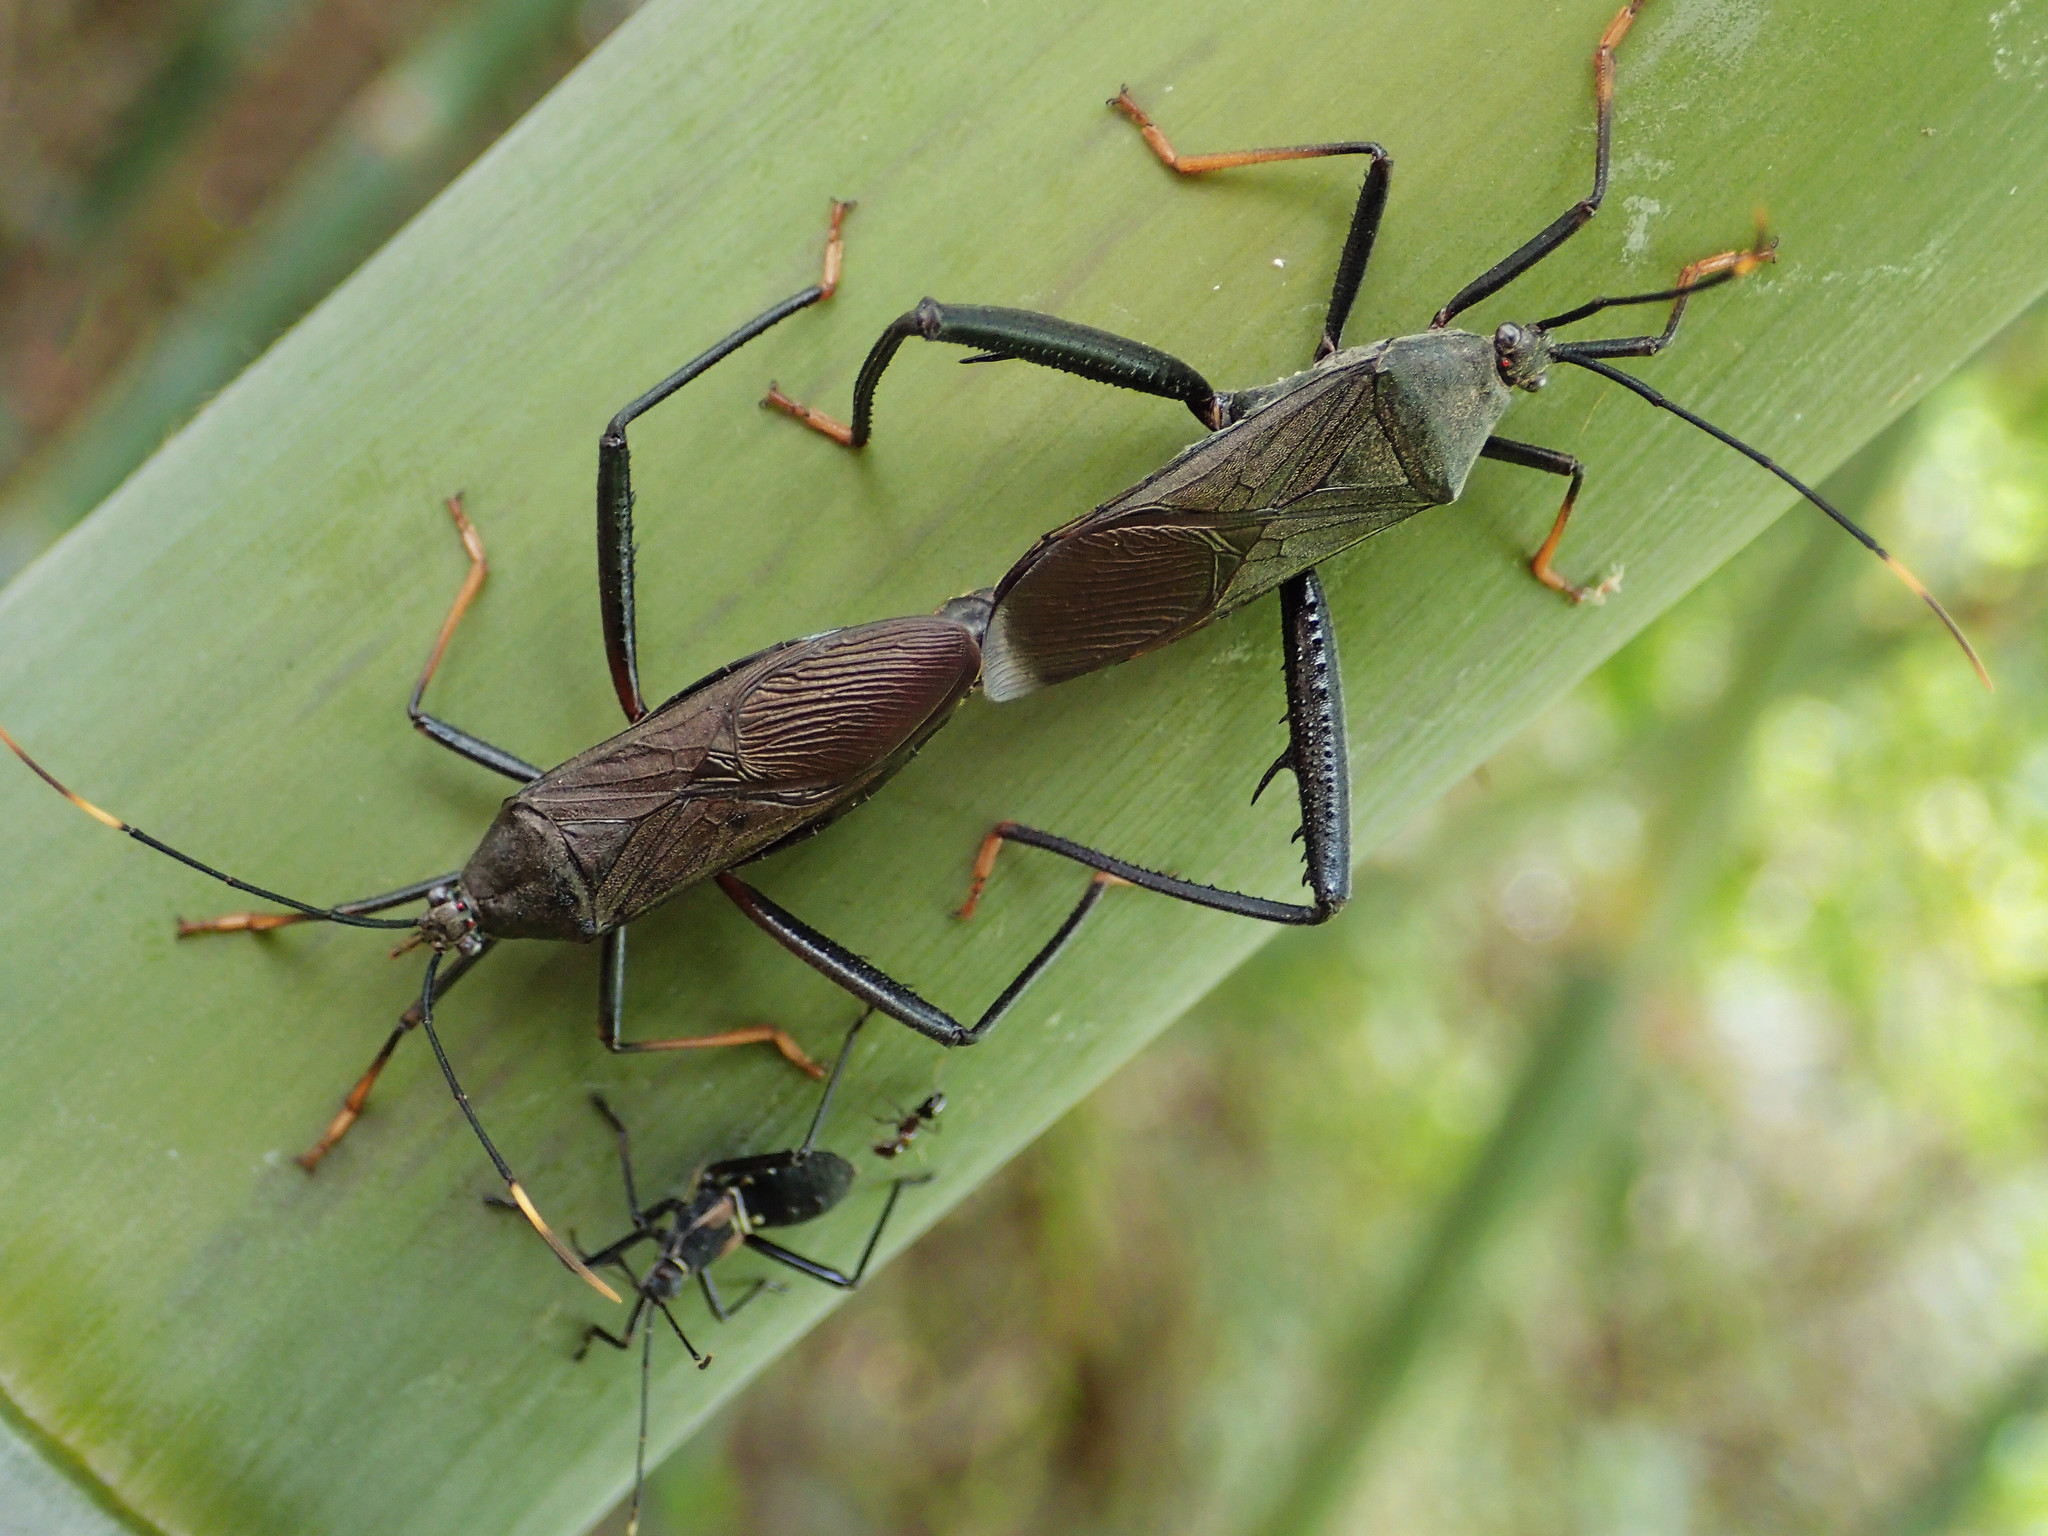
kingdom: Animalia
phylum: Arthropoda
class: Insecta
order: Hemiptera
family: Coreidae
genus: Notobitus
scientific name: Notobitus meleagris
